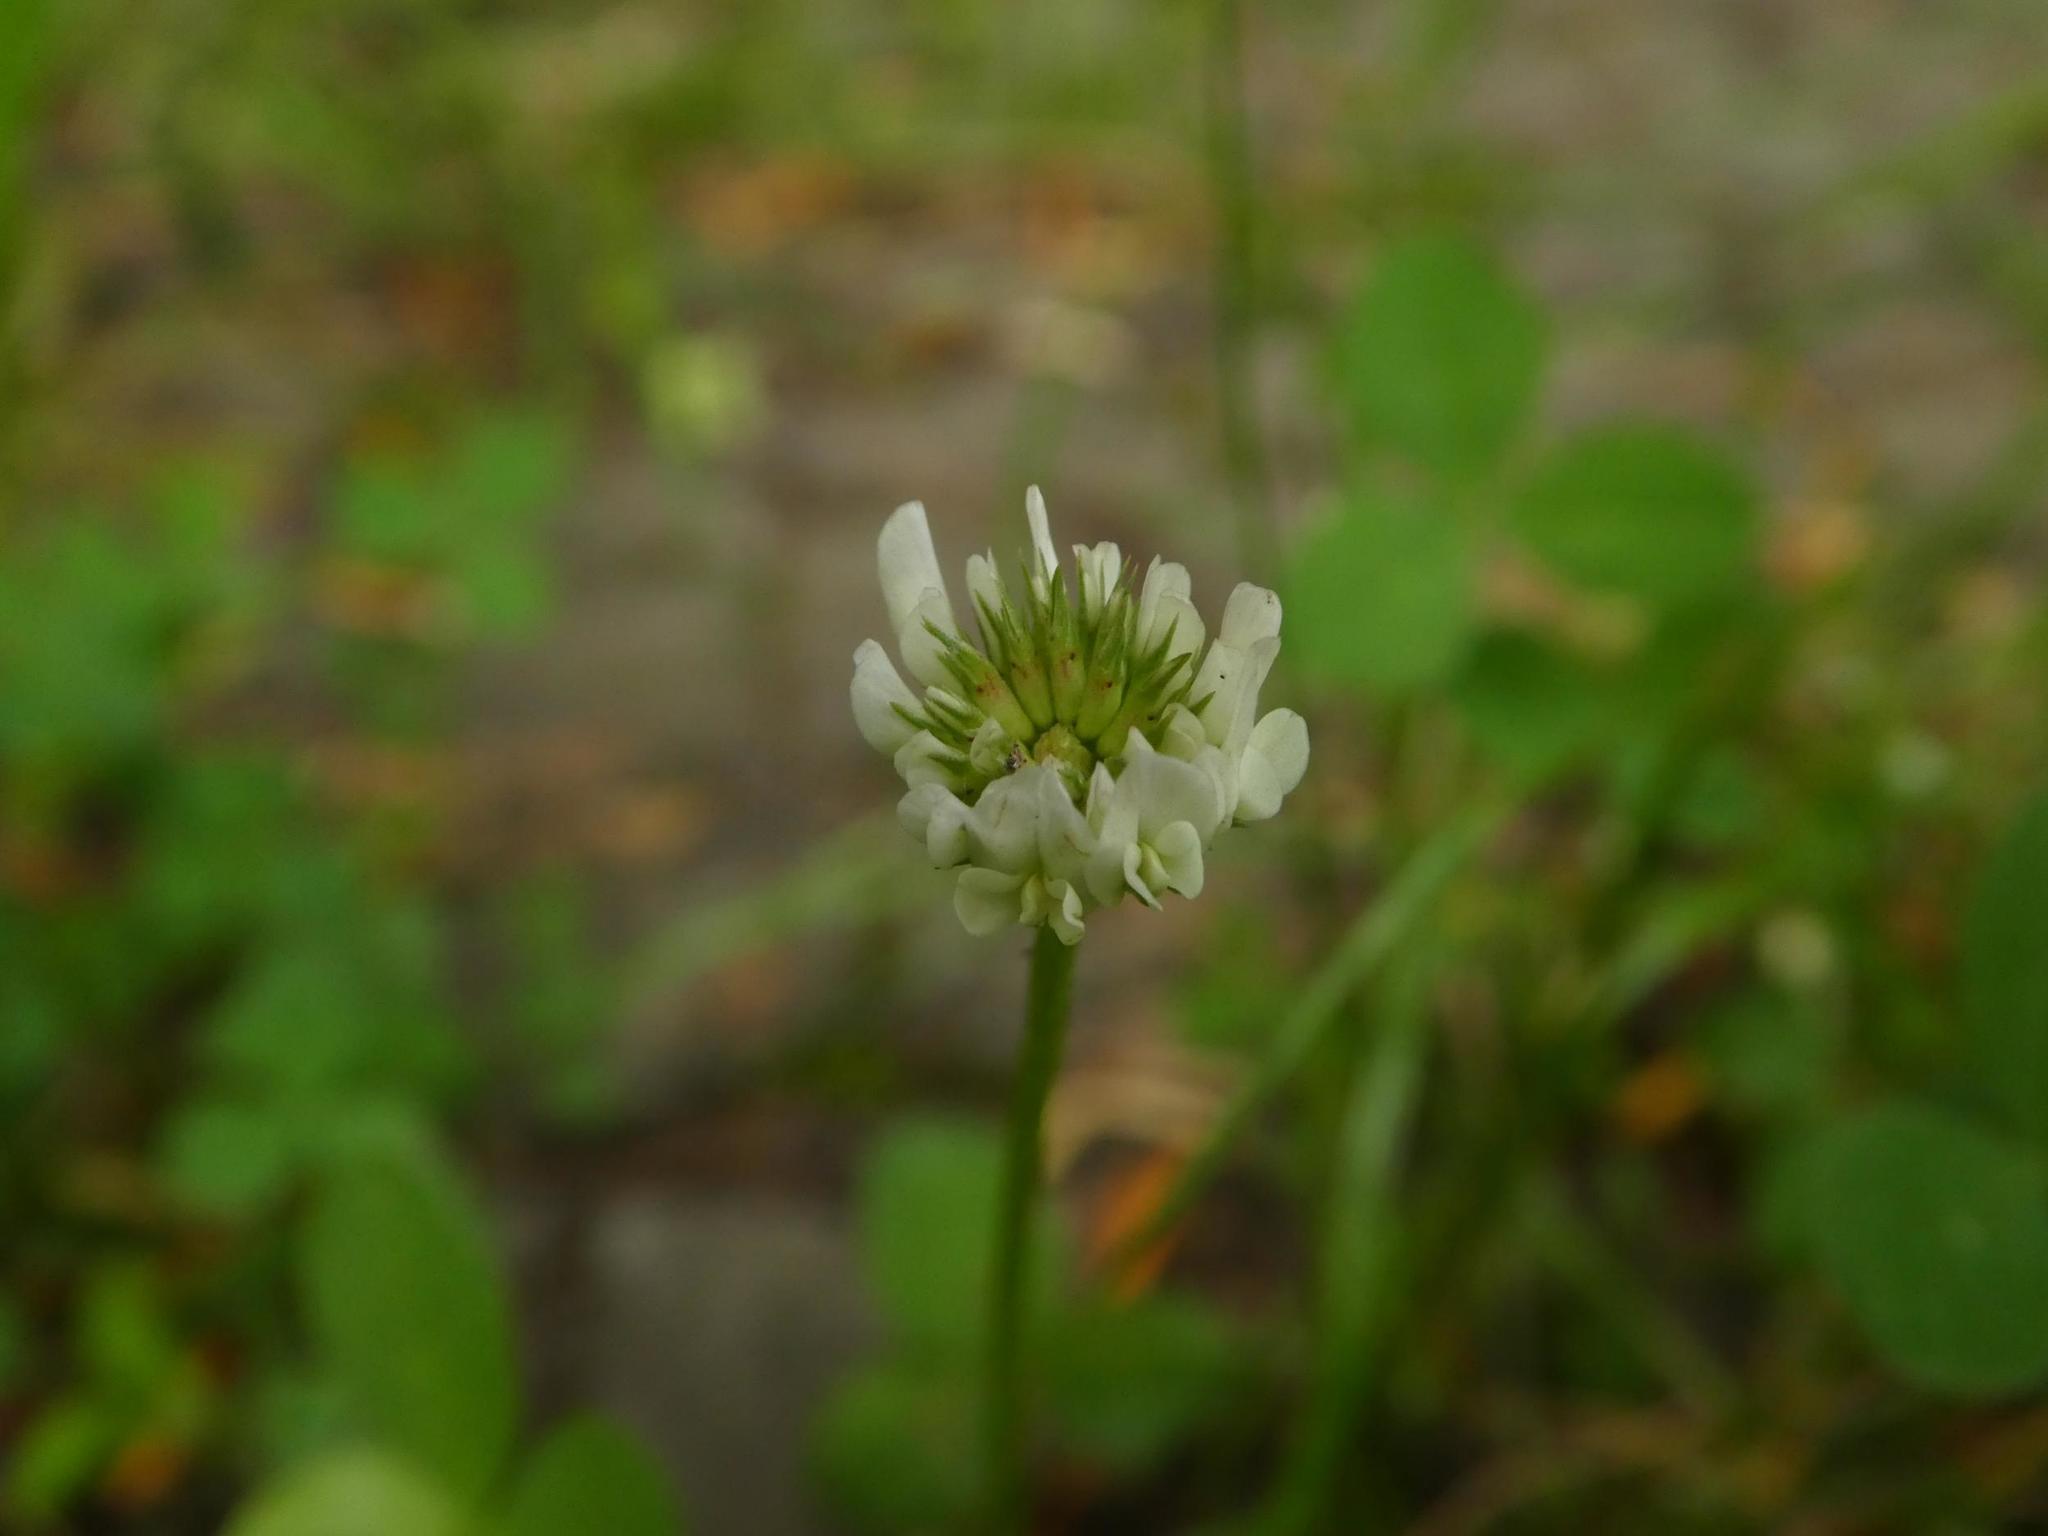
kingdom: Plantae
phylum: Tracheophyta
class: Magnoliopsida
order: Fabales
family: Fabaceae
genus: Trifolium
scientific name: Trifolium repens
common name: White clover
